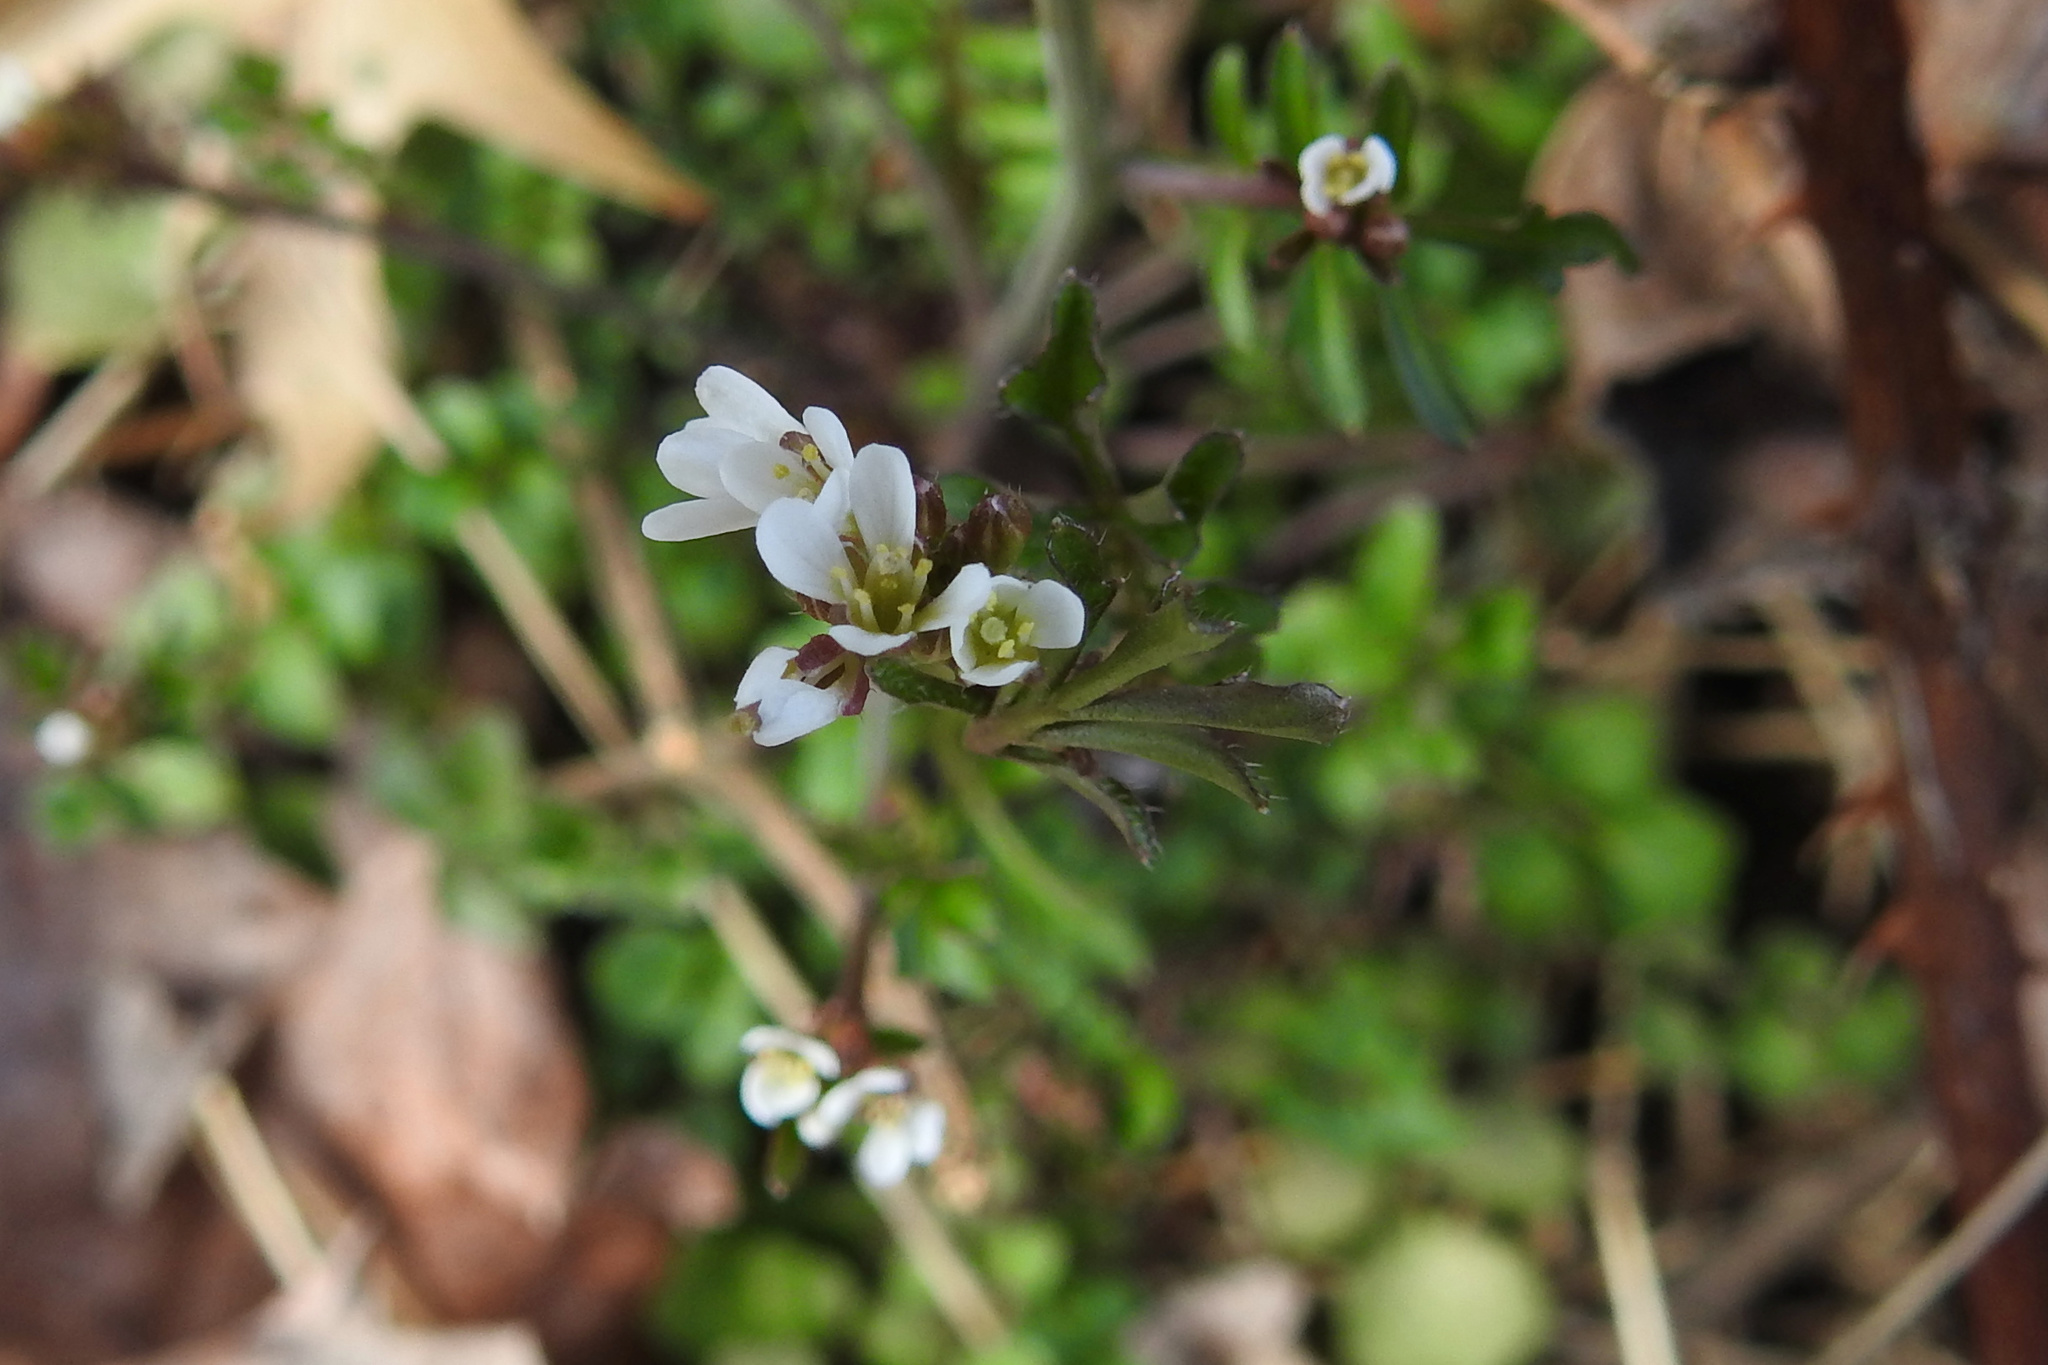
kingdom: Plantae
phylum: Tracheophyta
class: Magnoliopsida
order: Brassicales
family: Brassicaceae
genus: Cardamine
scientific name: Cardamine hirsuta
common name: Hairy bittercress
